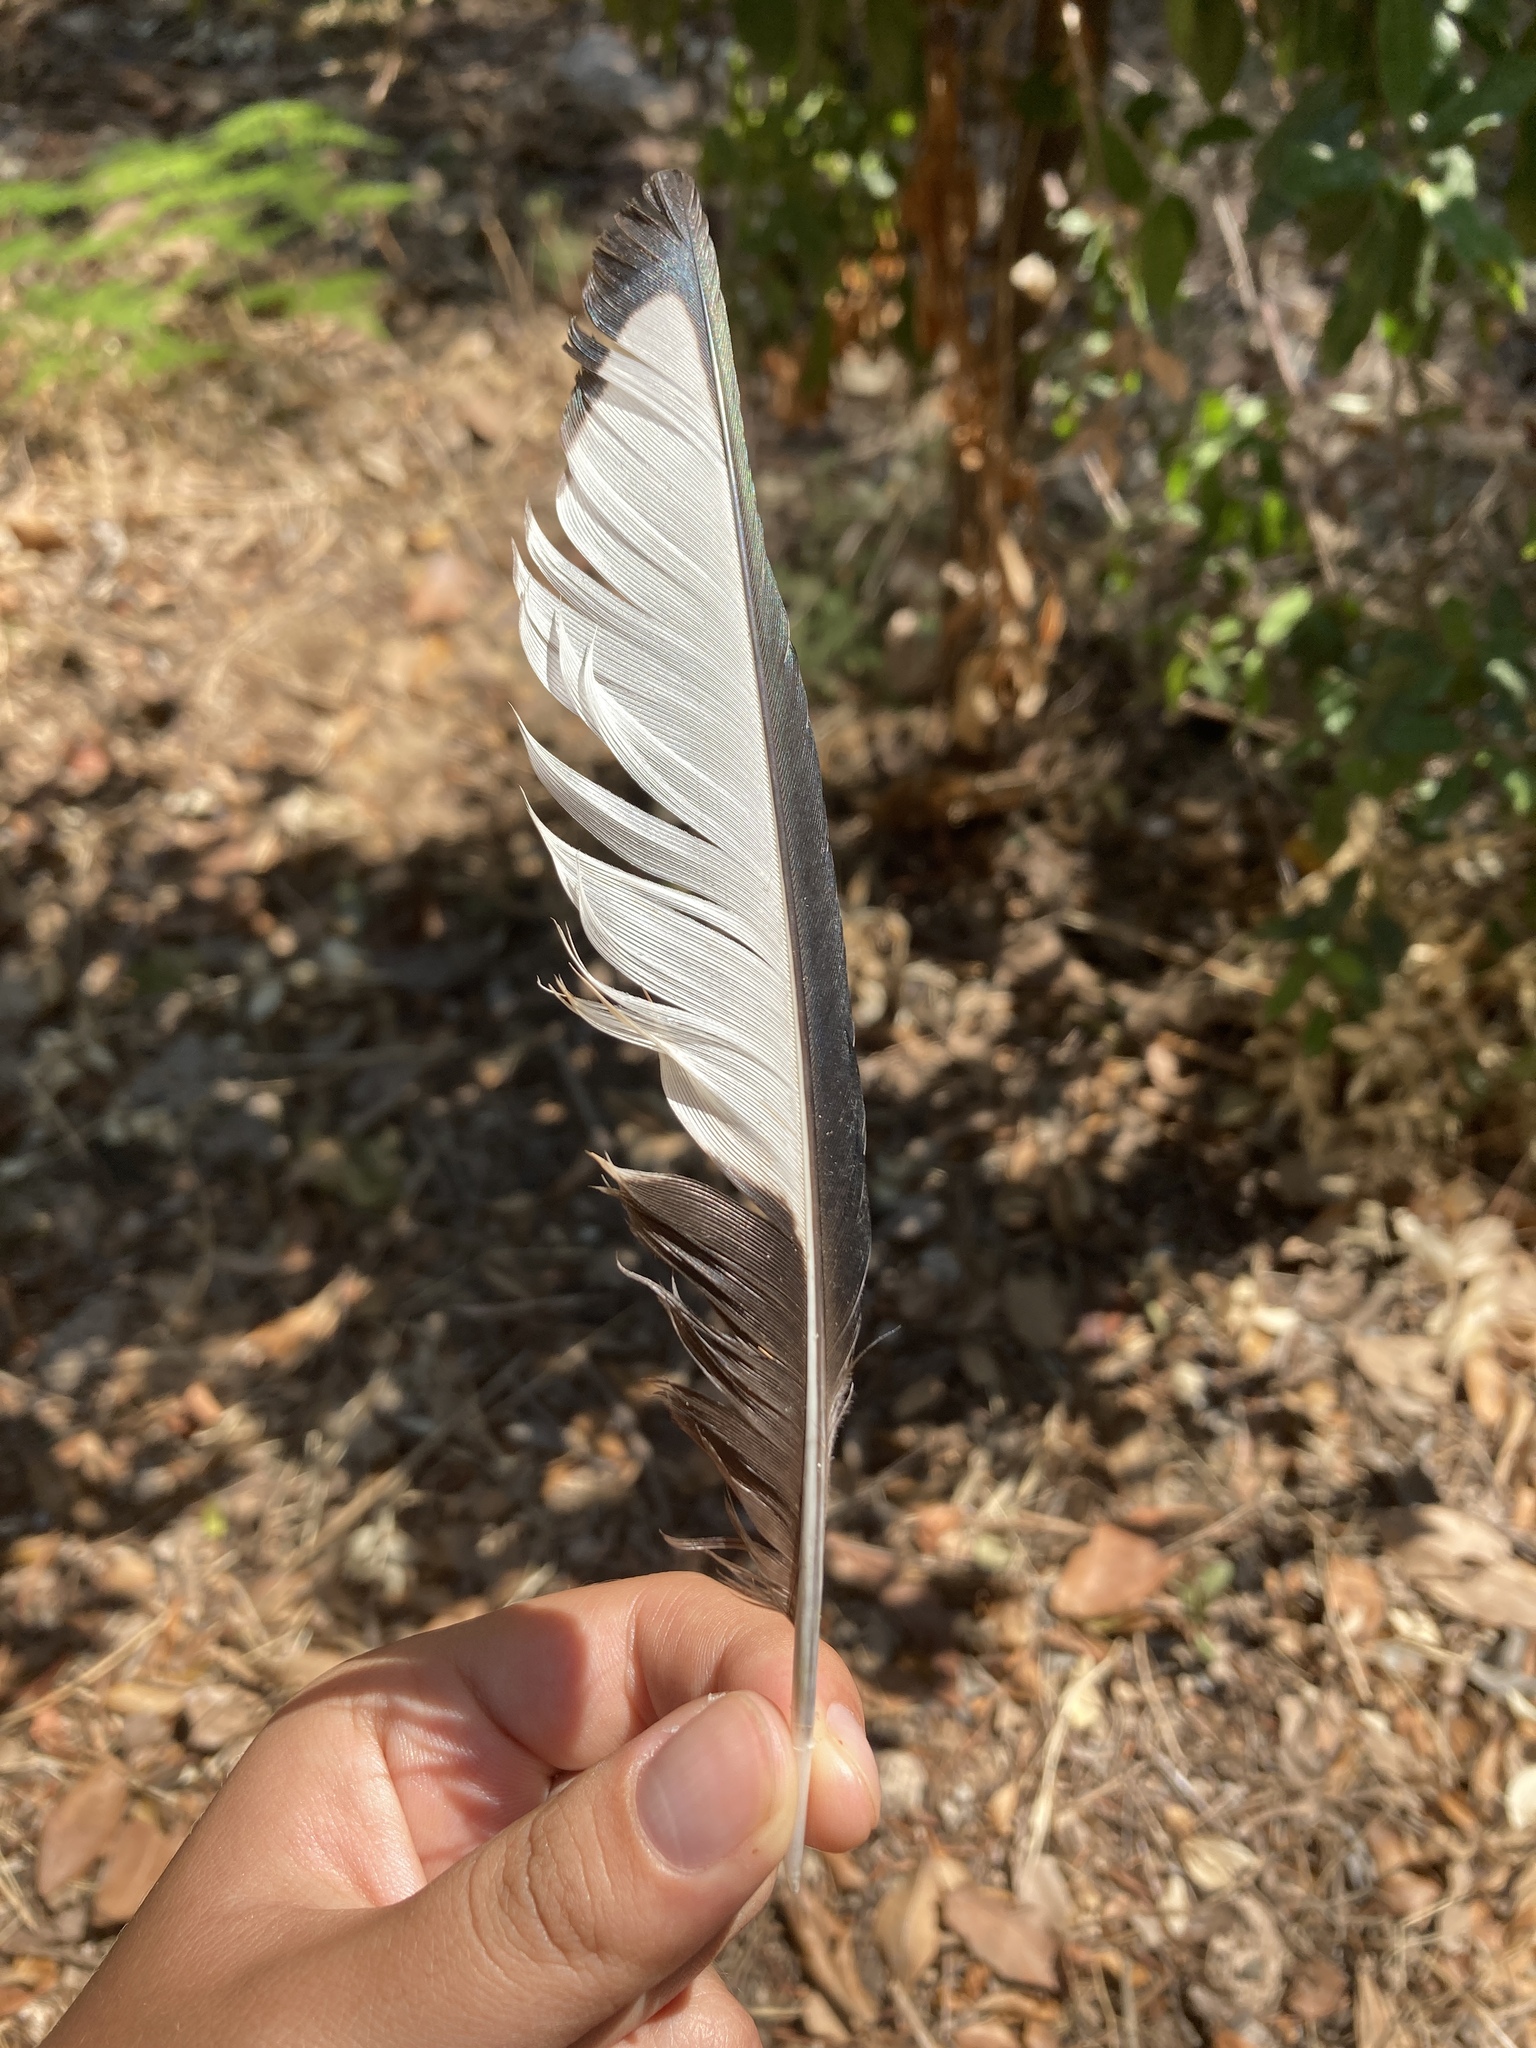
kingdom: Animalia
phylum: Chordata
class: Aves
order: Passeriformes
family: Corvidae
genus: Pica
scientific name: Pica pica
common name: Eurasian magpie
